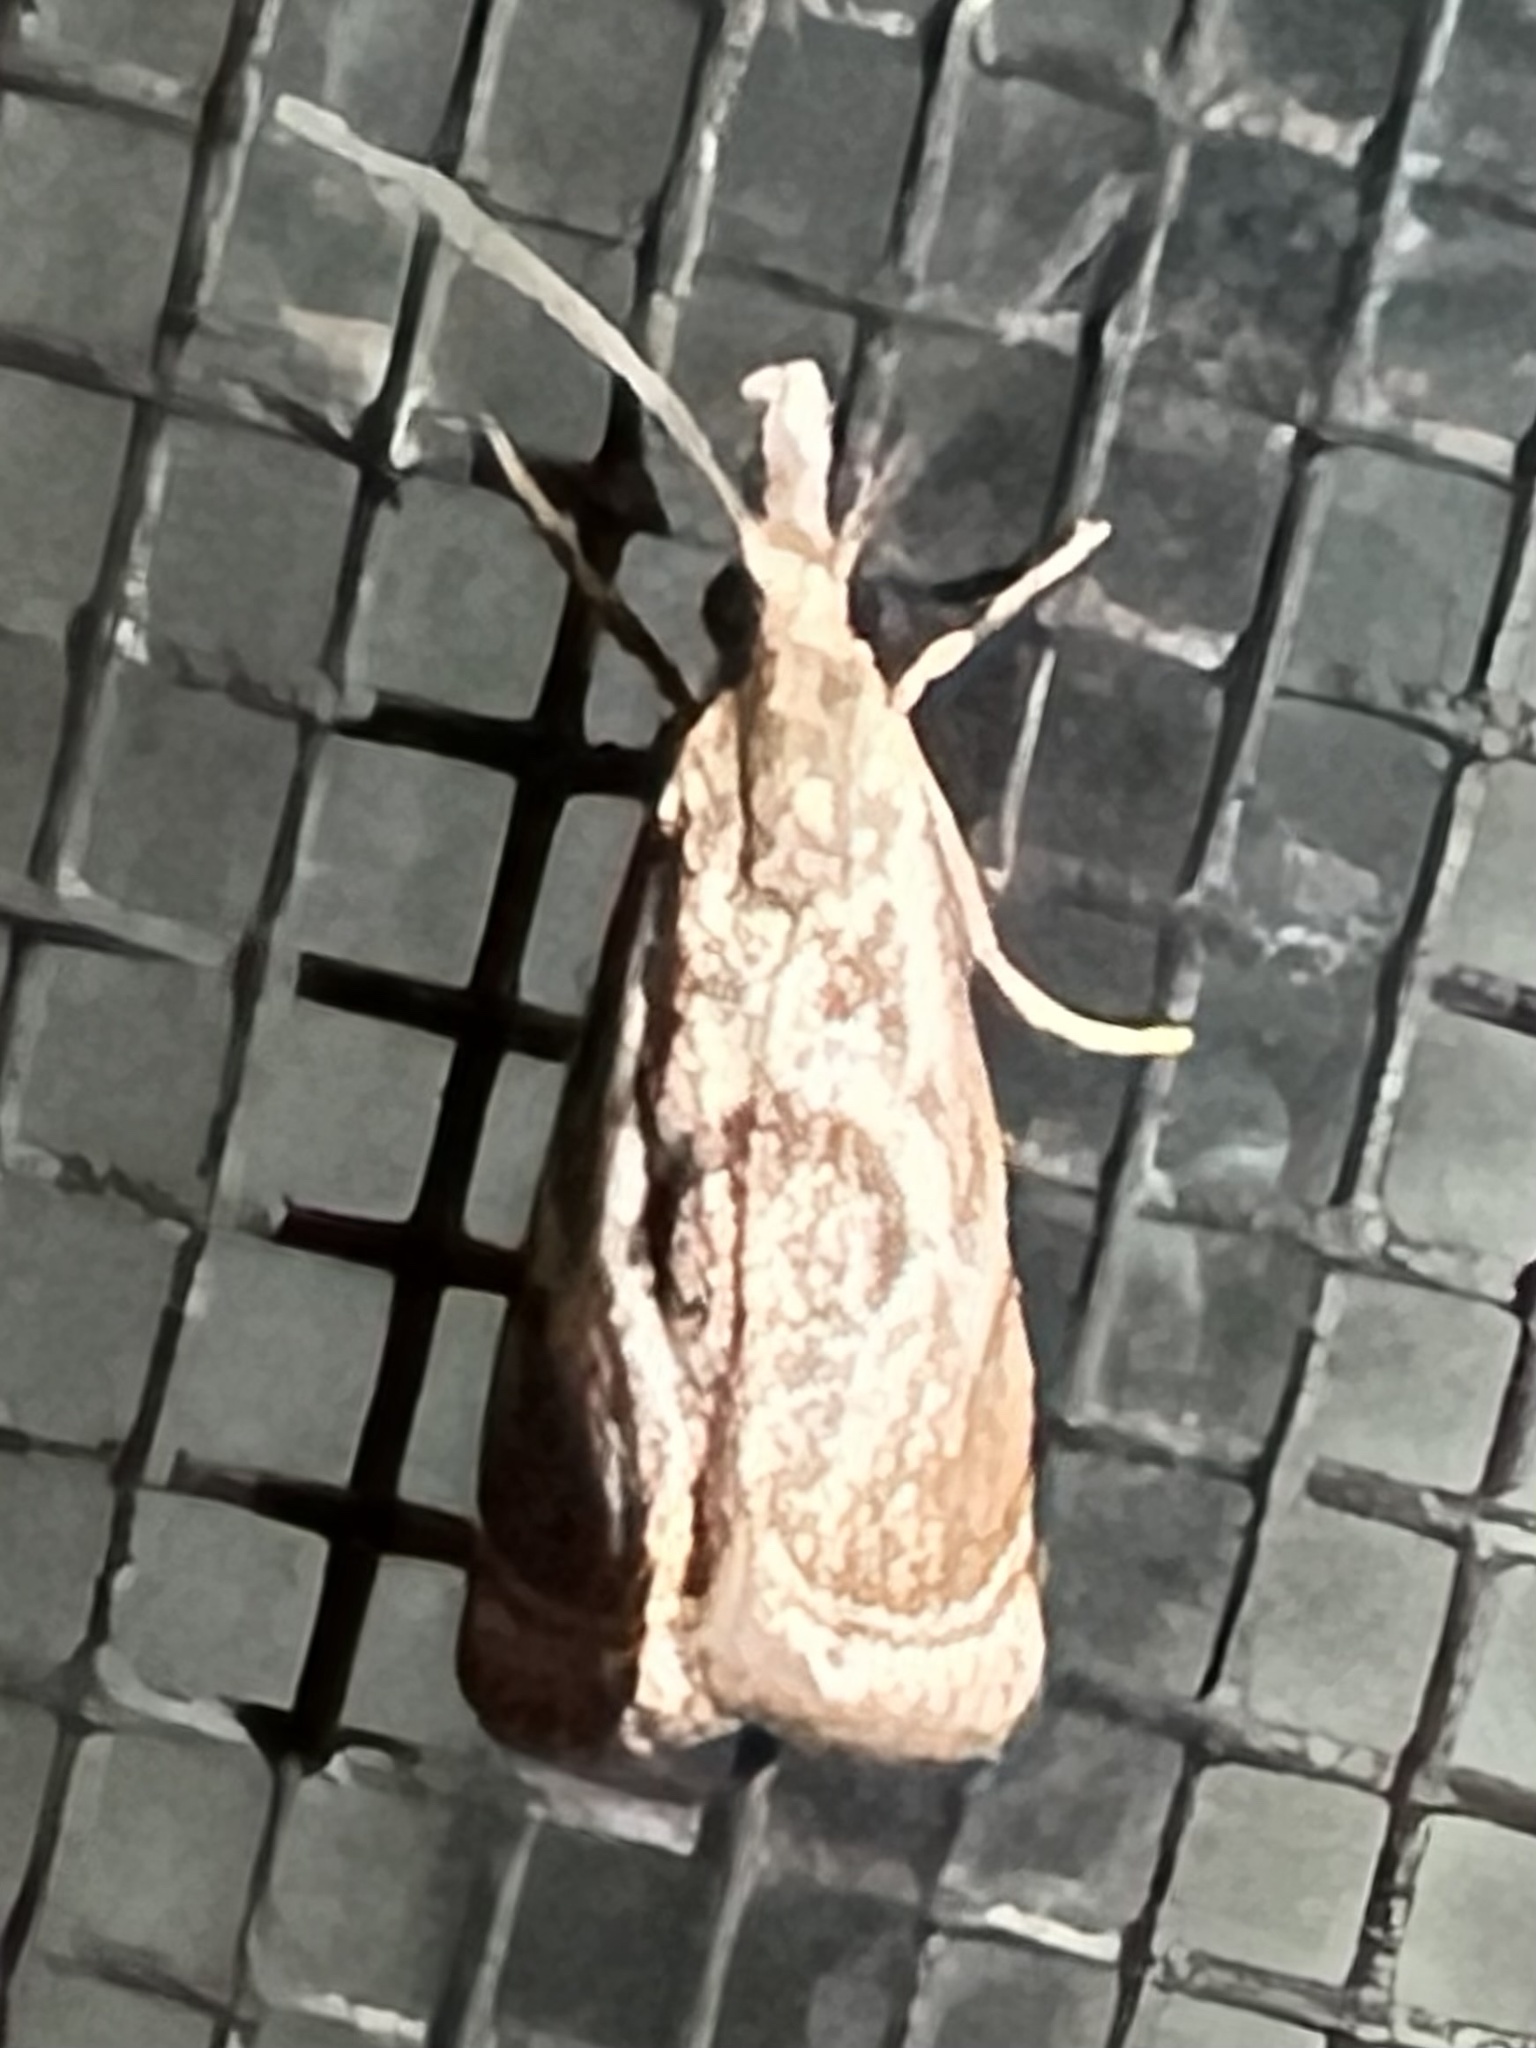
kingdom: Animalia
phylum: Arthropoda
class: Insecta
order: Lepidoptera
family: Crambidae
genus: Microcrambus
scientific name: Microcrambus elegans
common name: Elegant grass-veneer
